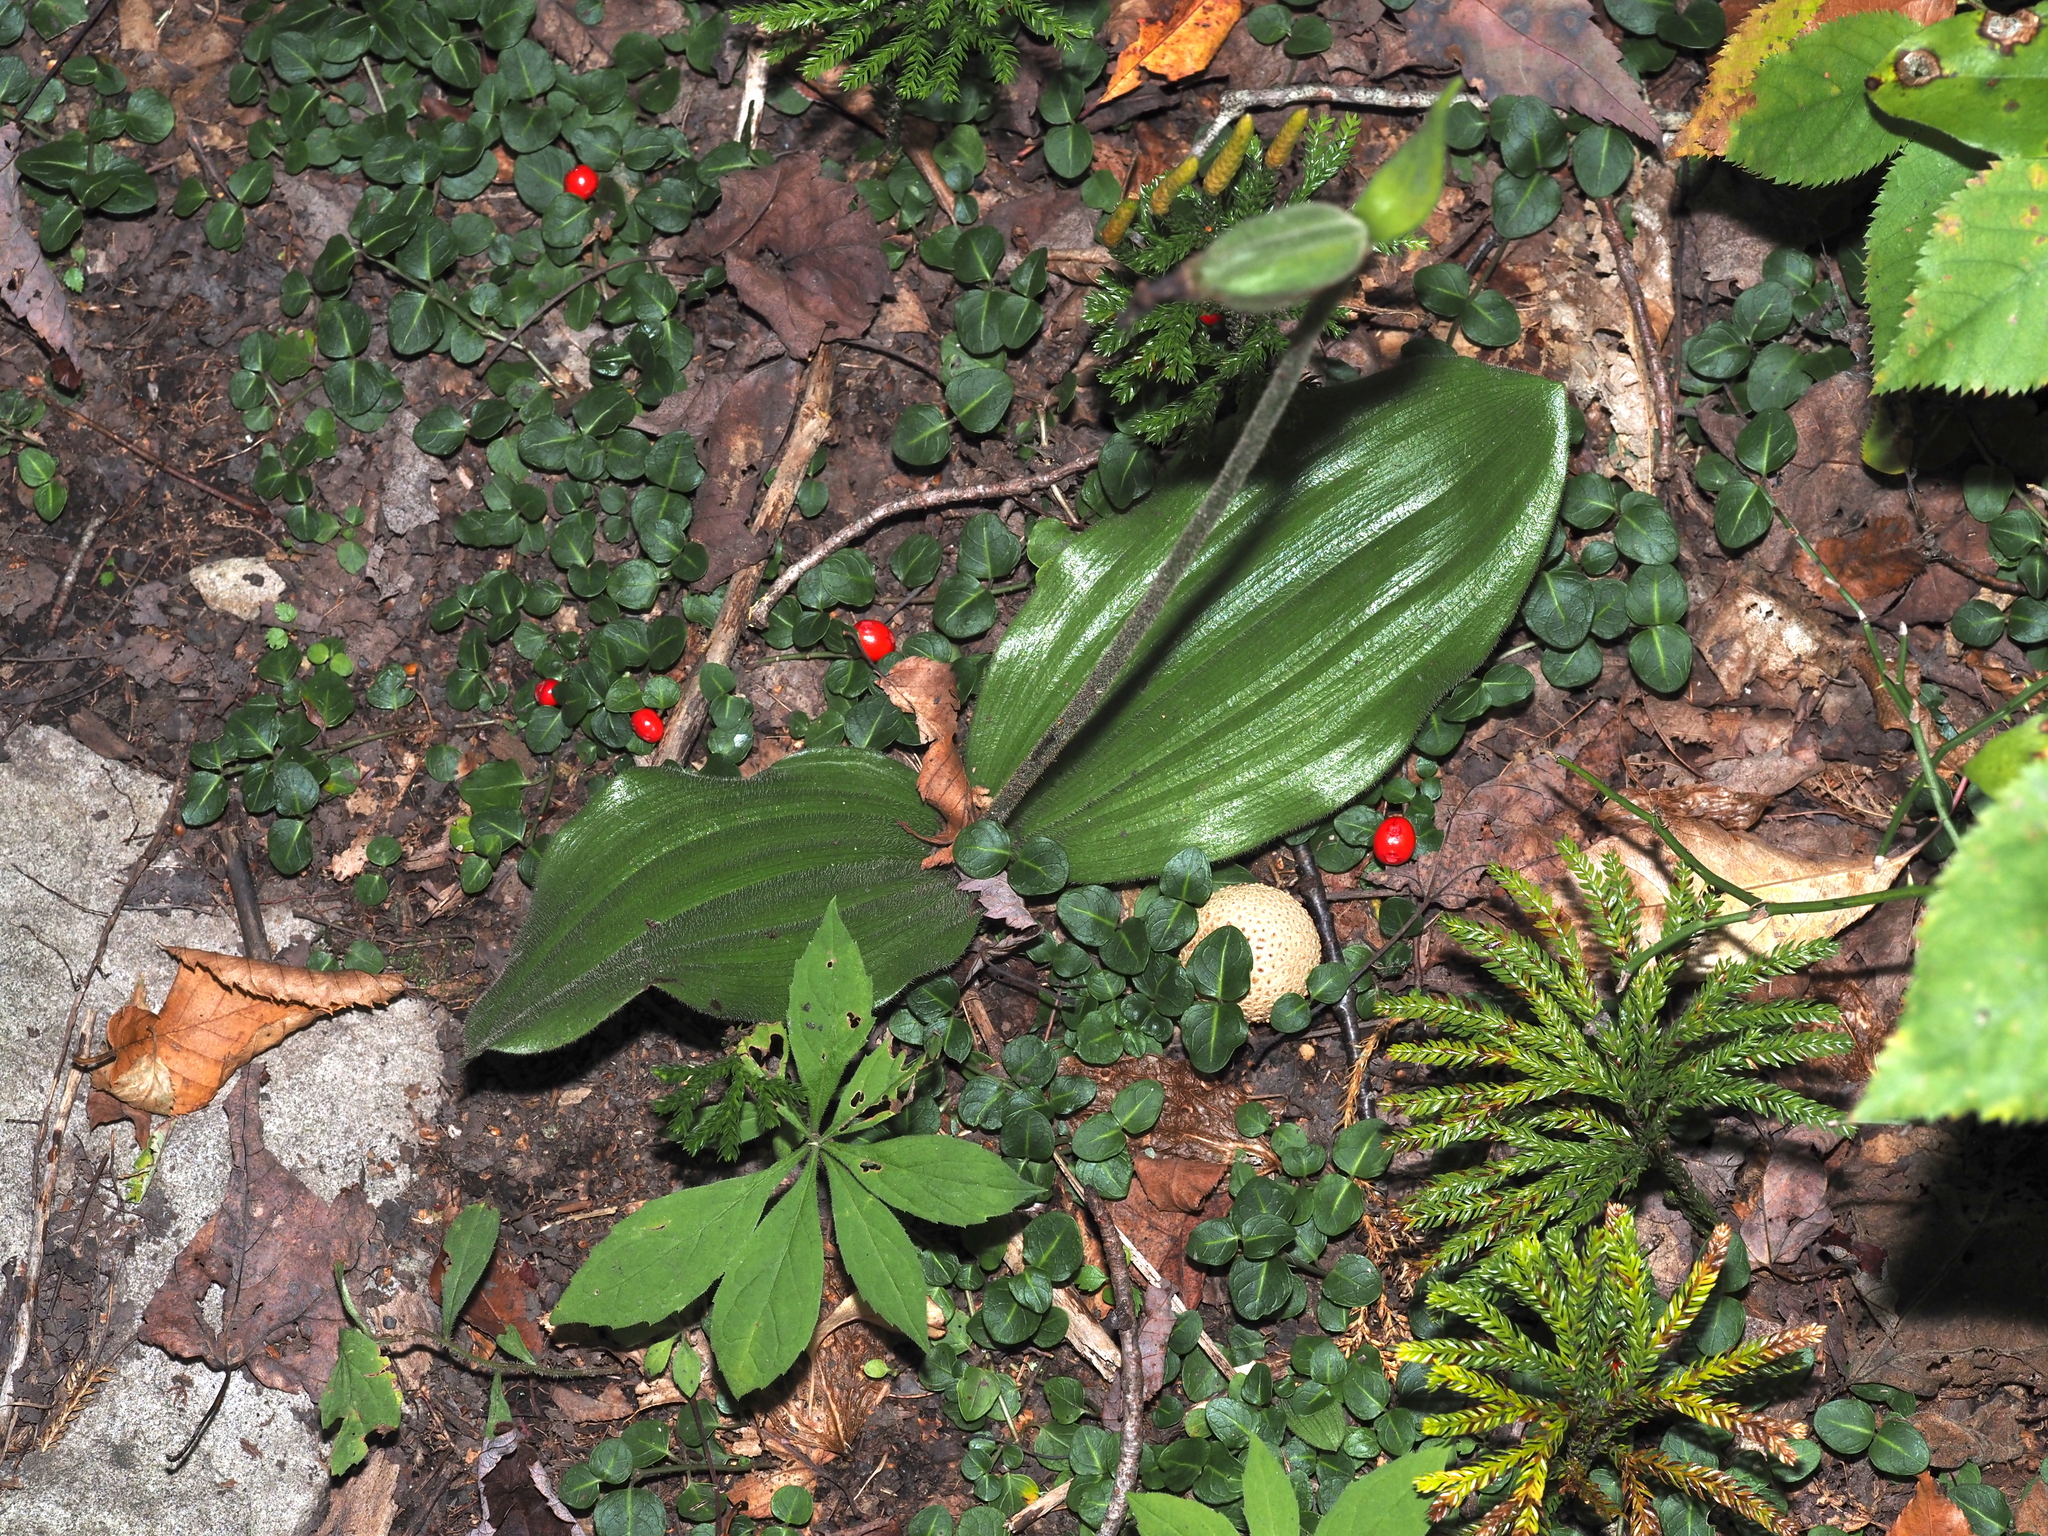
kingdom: Plantae
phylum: Tracheophyta
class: Liliopsida
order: Asparagales
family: Orchidaceae
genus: Cypripedium
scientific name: Cypripedium acaule
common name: Pink lady's-slipper
